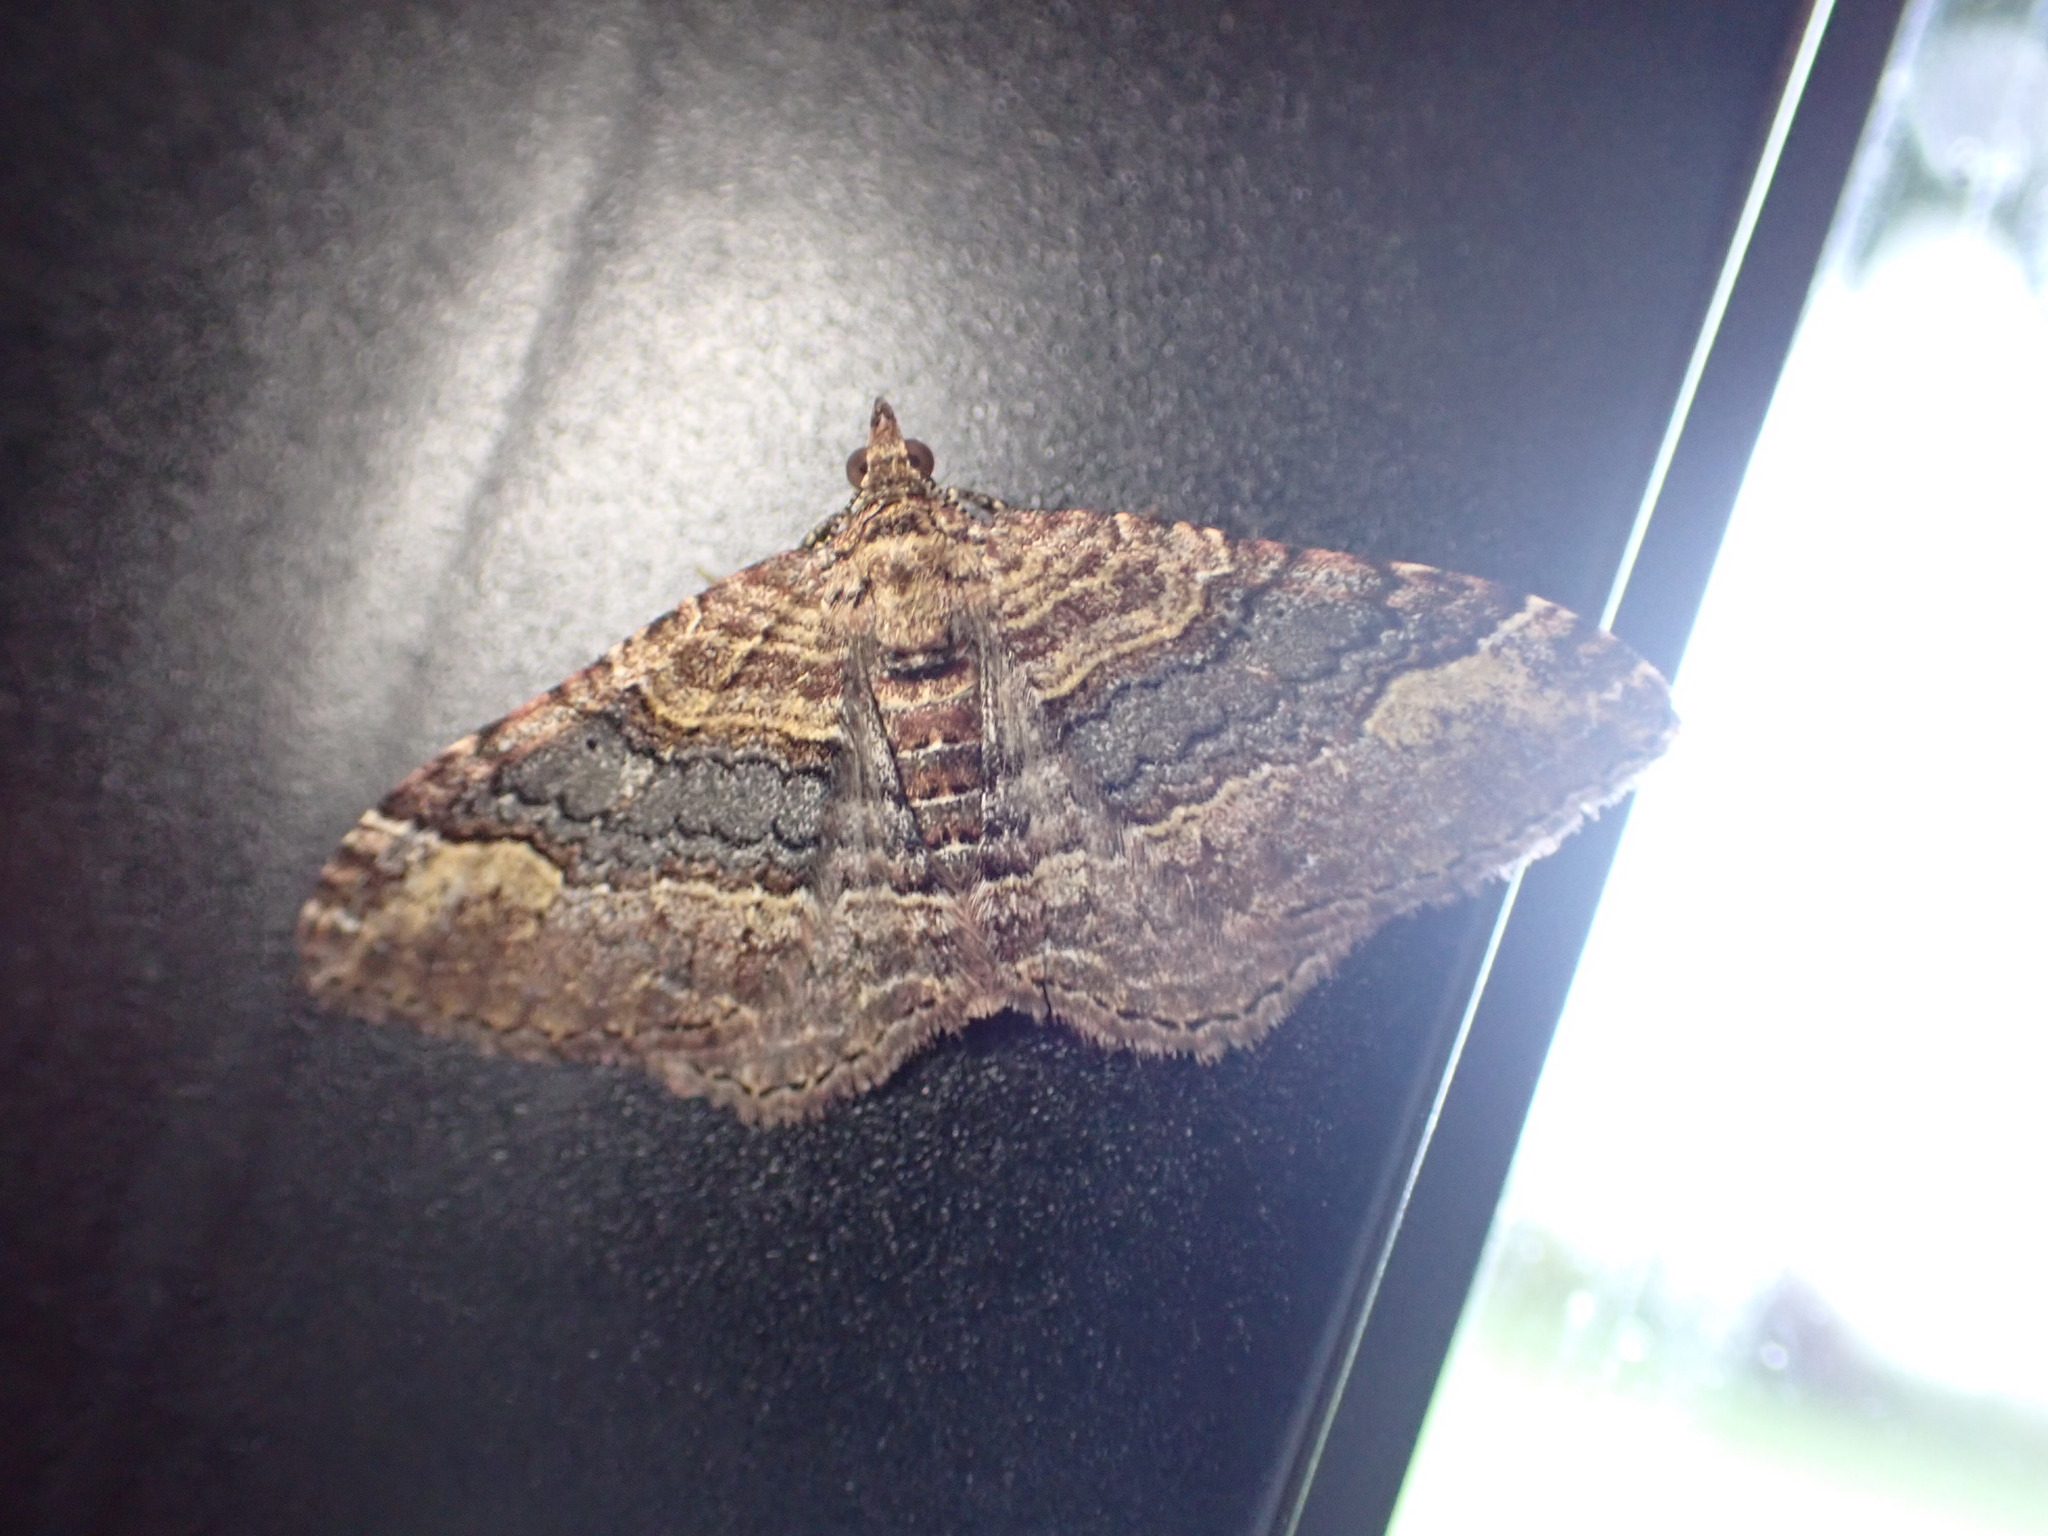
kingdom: Animalia
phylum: Arthropoda
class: Insecta
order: Lepidoptera
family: Geometridae
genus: Epyaxa
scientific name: Epyaxa lucidata
